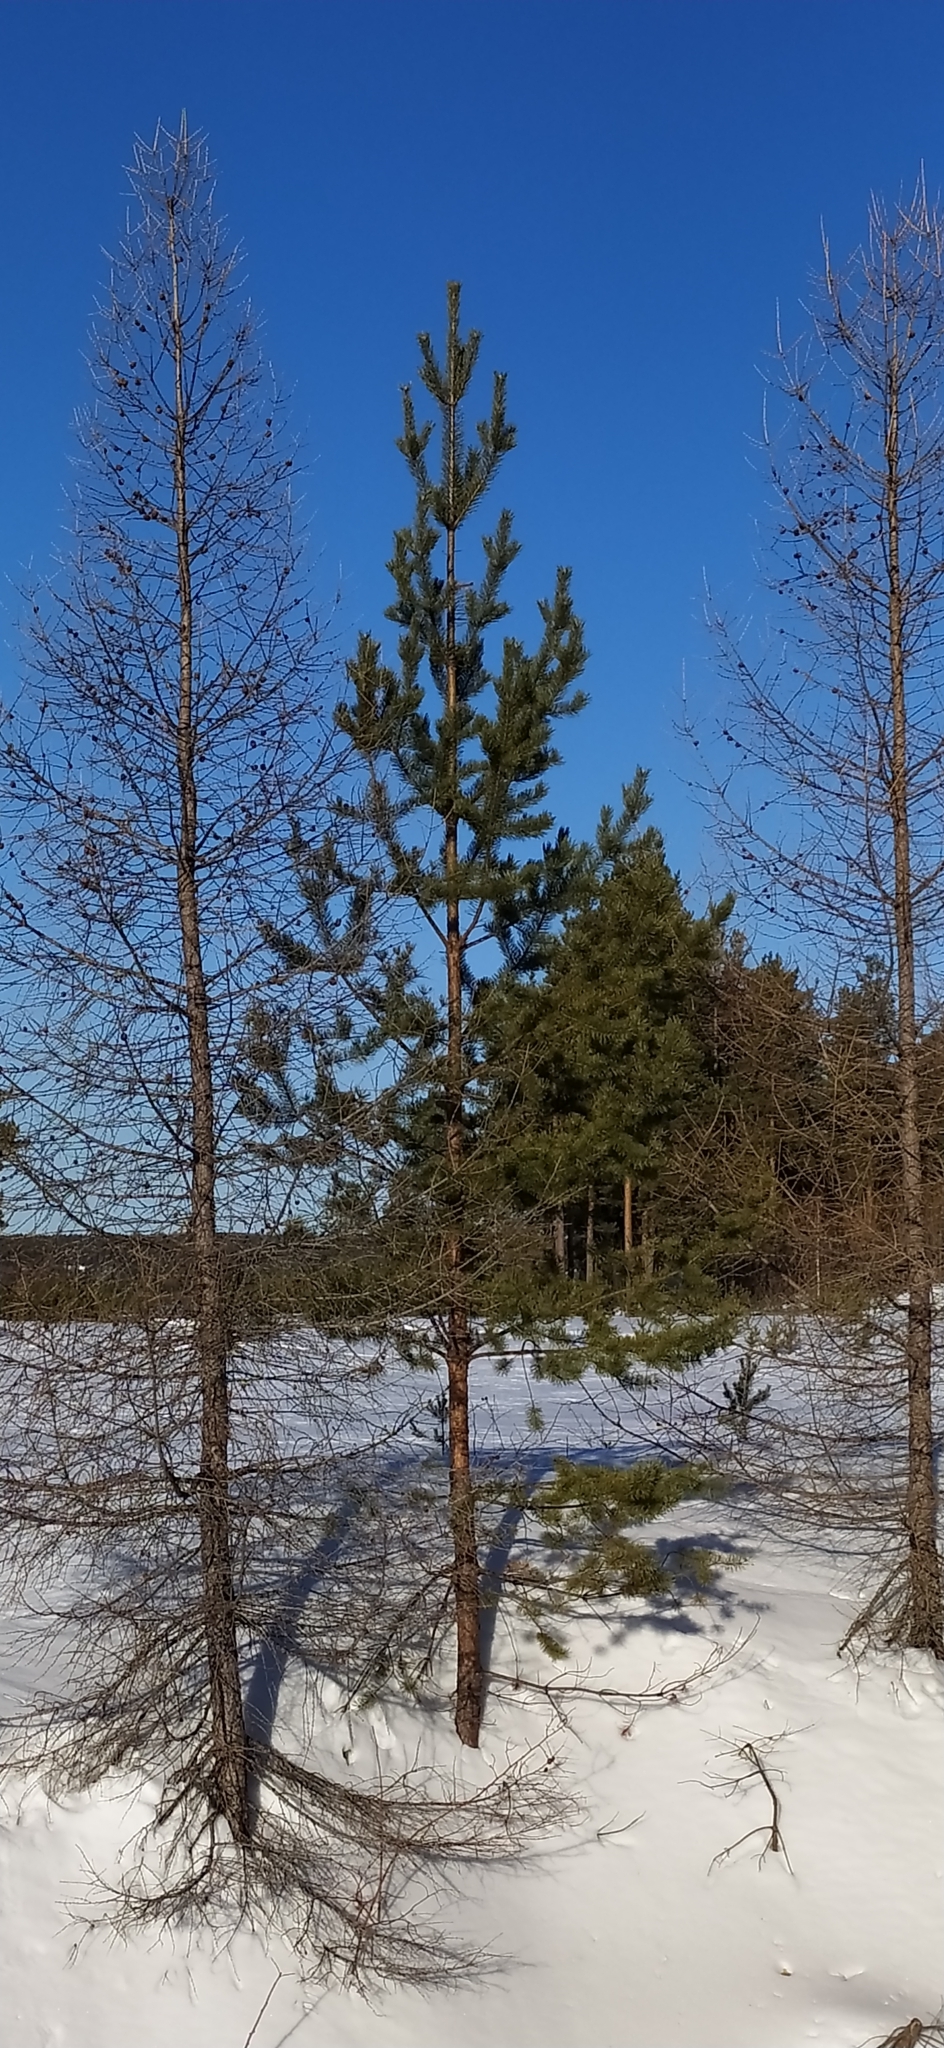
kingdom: Plantae
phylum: Tracheophyta
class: Pinopsida
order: Pinales
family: Pinaceae
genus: Pinus
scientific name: Pinus sylvestris
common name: Scots pine
